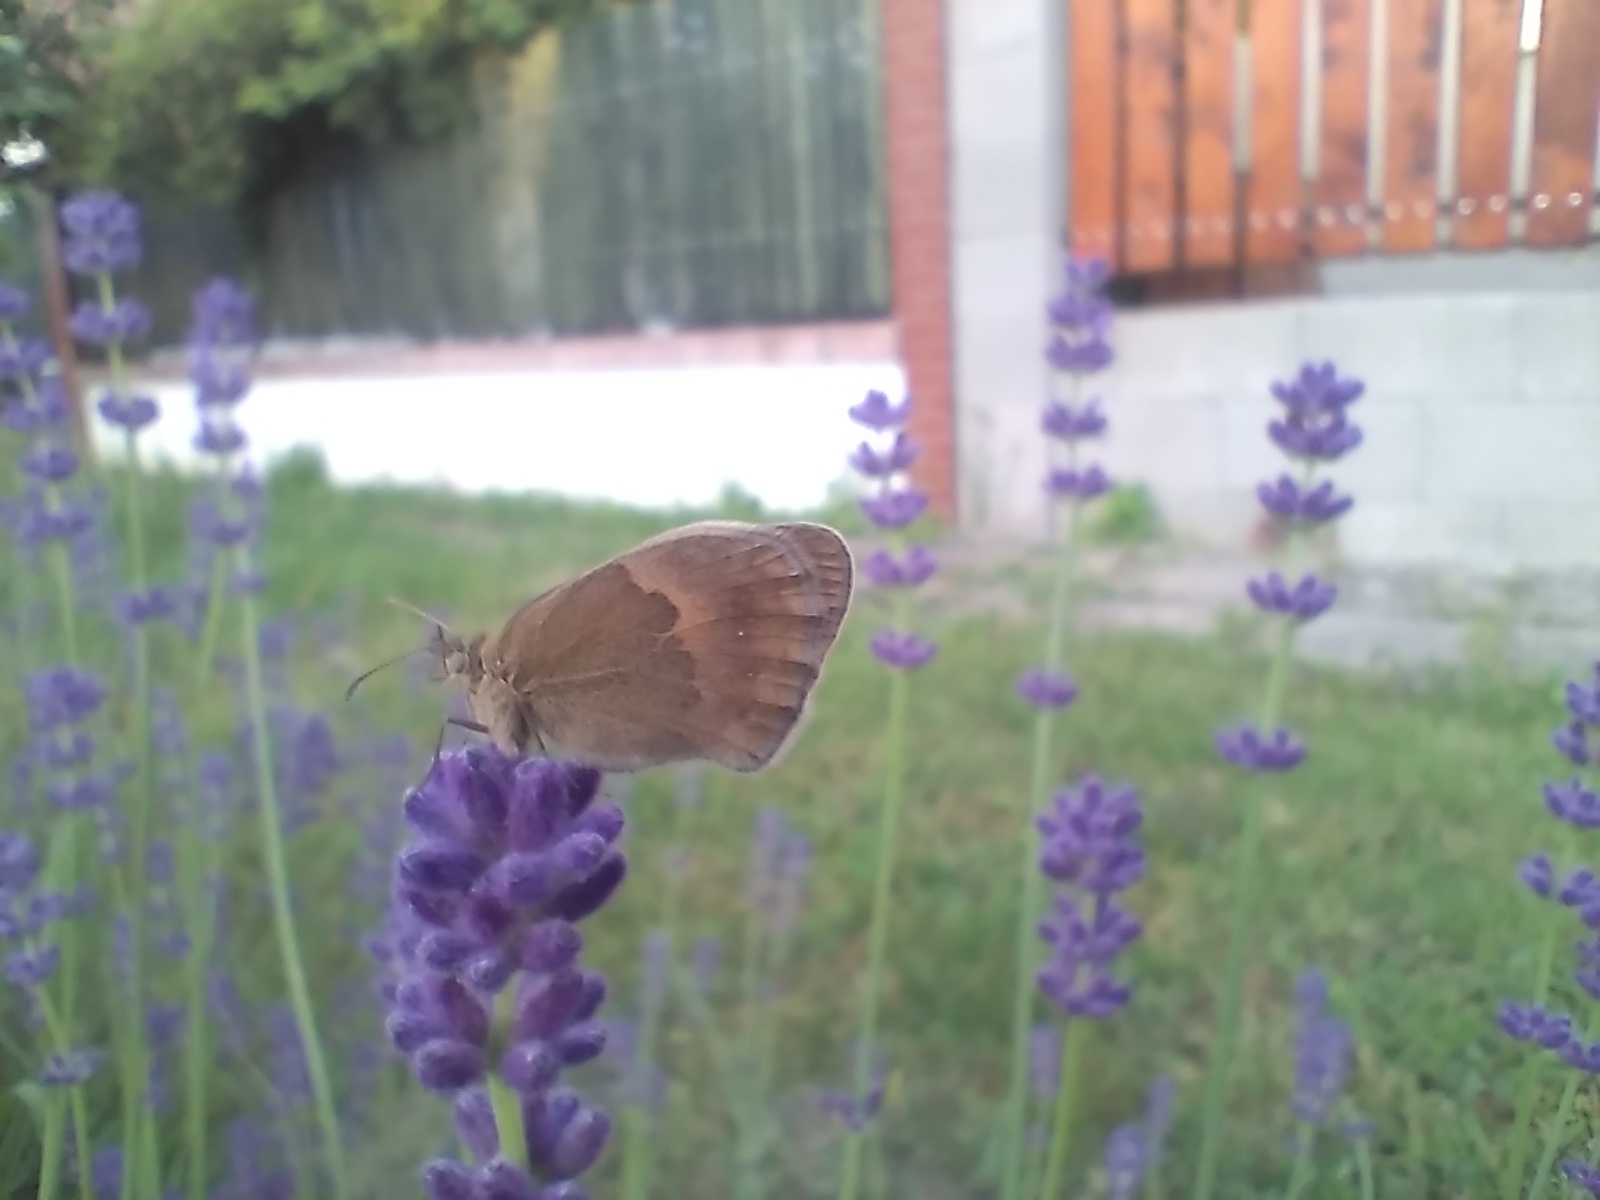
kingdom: Animalia
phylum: Arthropoda
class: Insecta
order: Lepidoptera
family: Nymphalidae
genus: Coenonympha
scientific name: Coenonympha pamphilus
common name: Small heath
